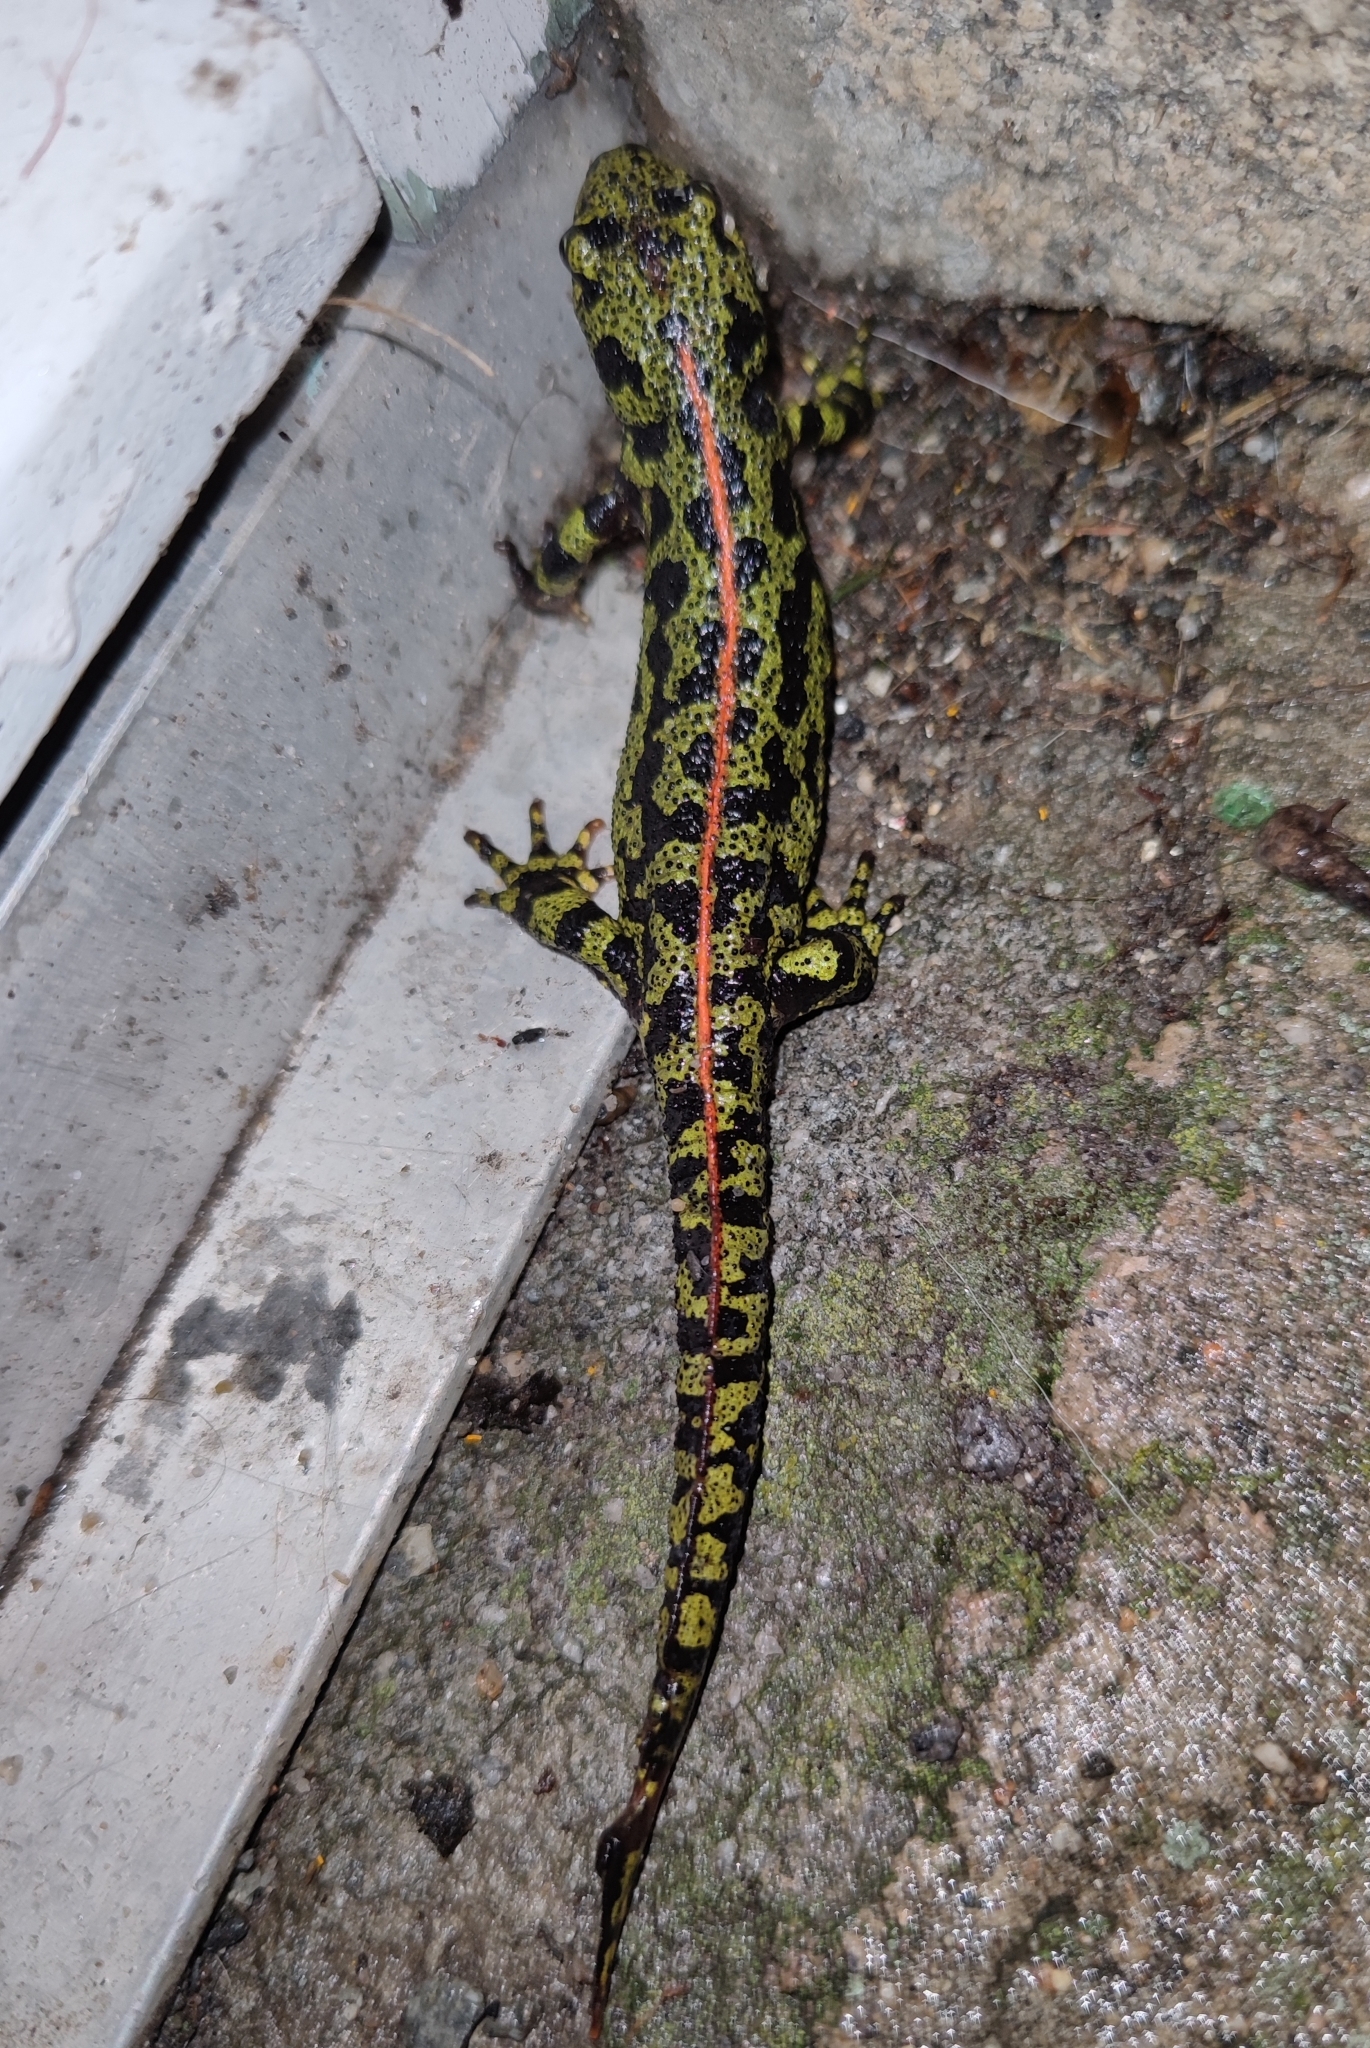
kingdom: Animalia
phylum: Chordata
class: Amphibia
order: Caudata
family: Salamandridae
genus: Triturus
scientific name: Triturus marmoratus
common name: Marbled newt
